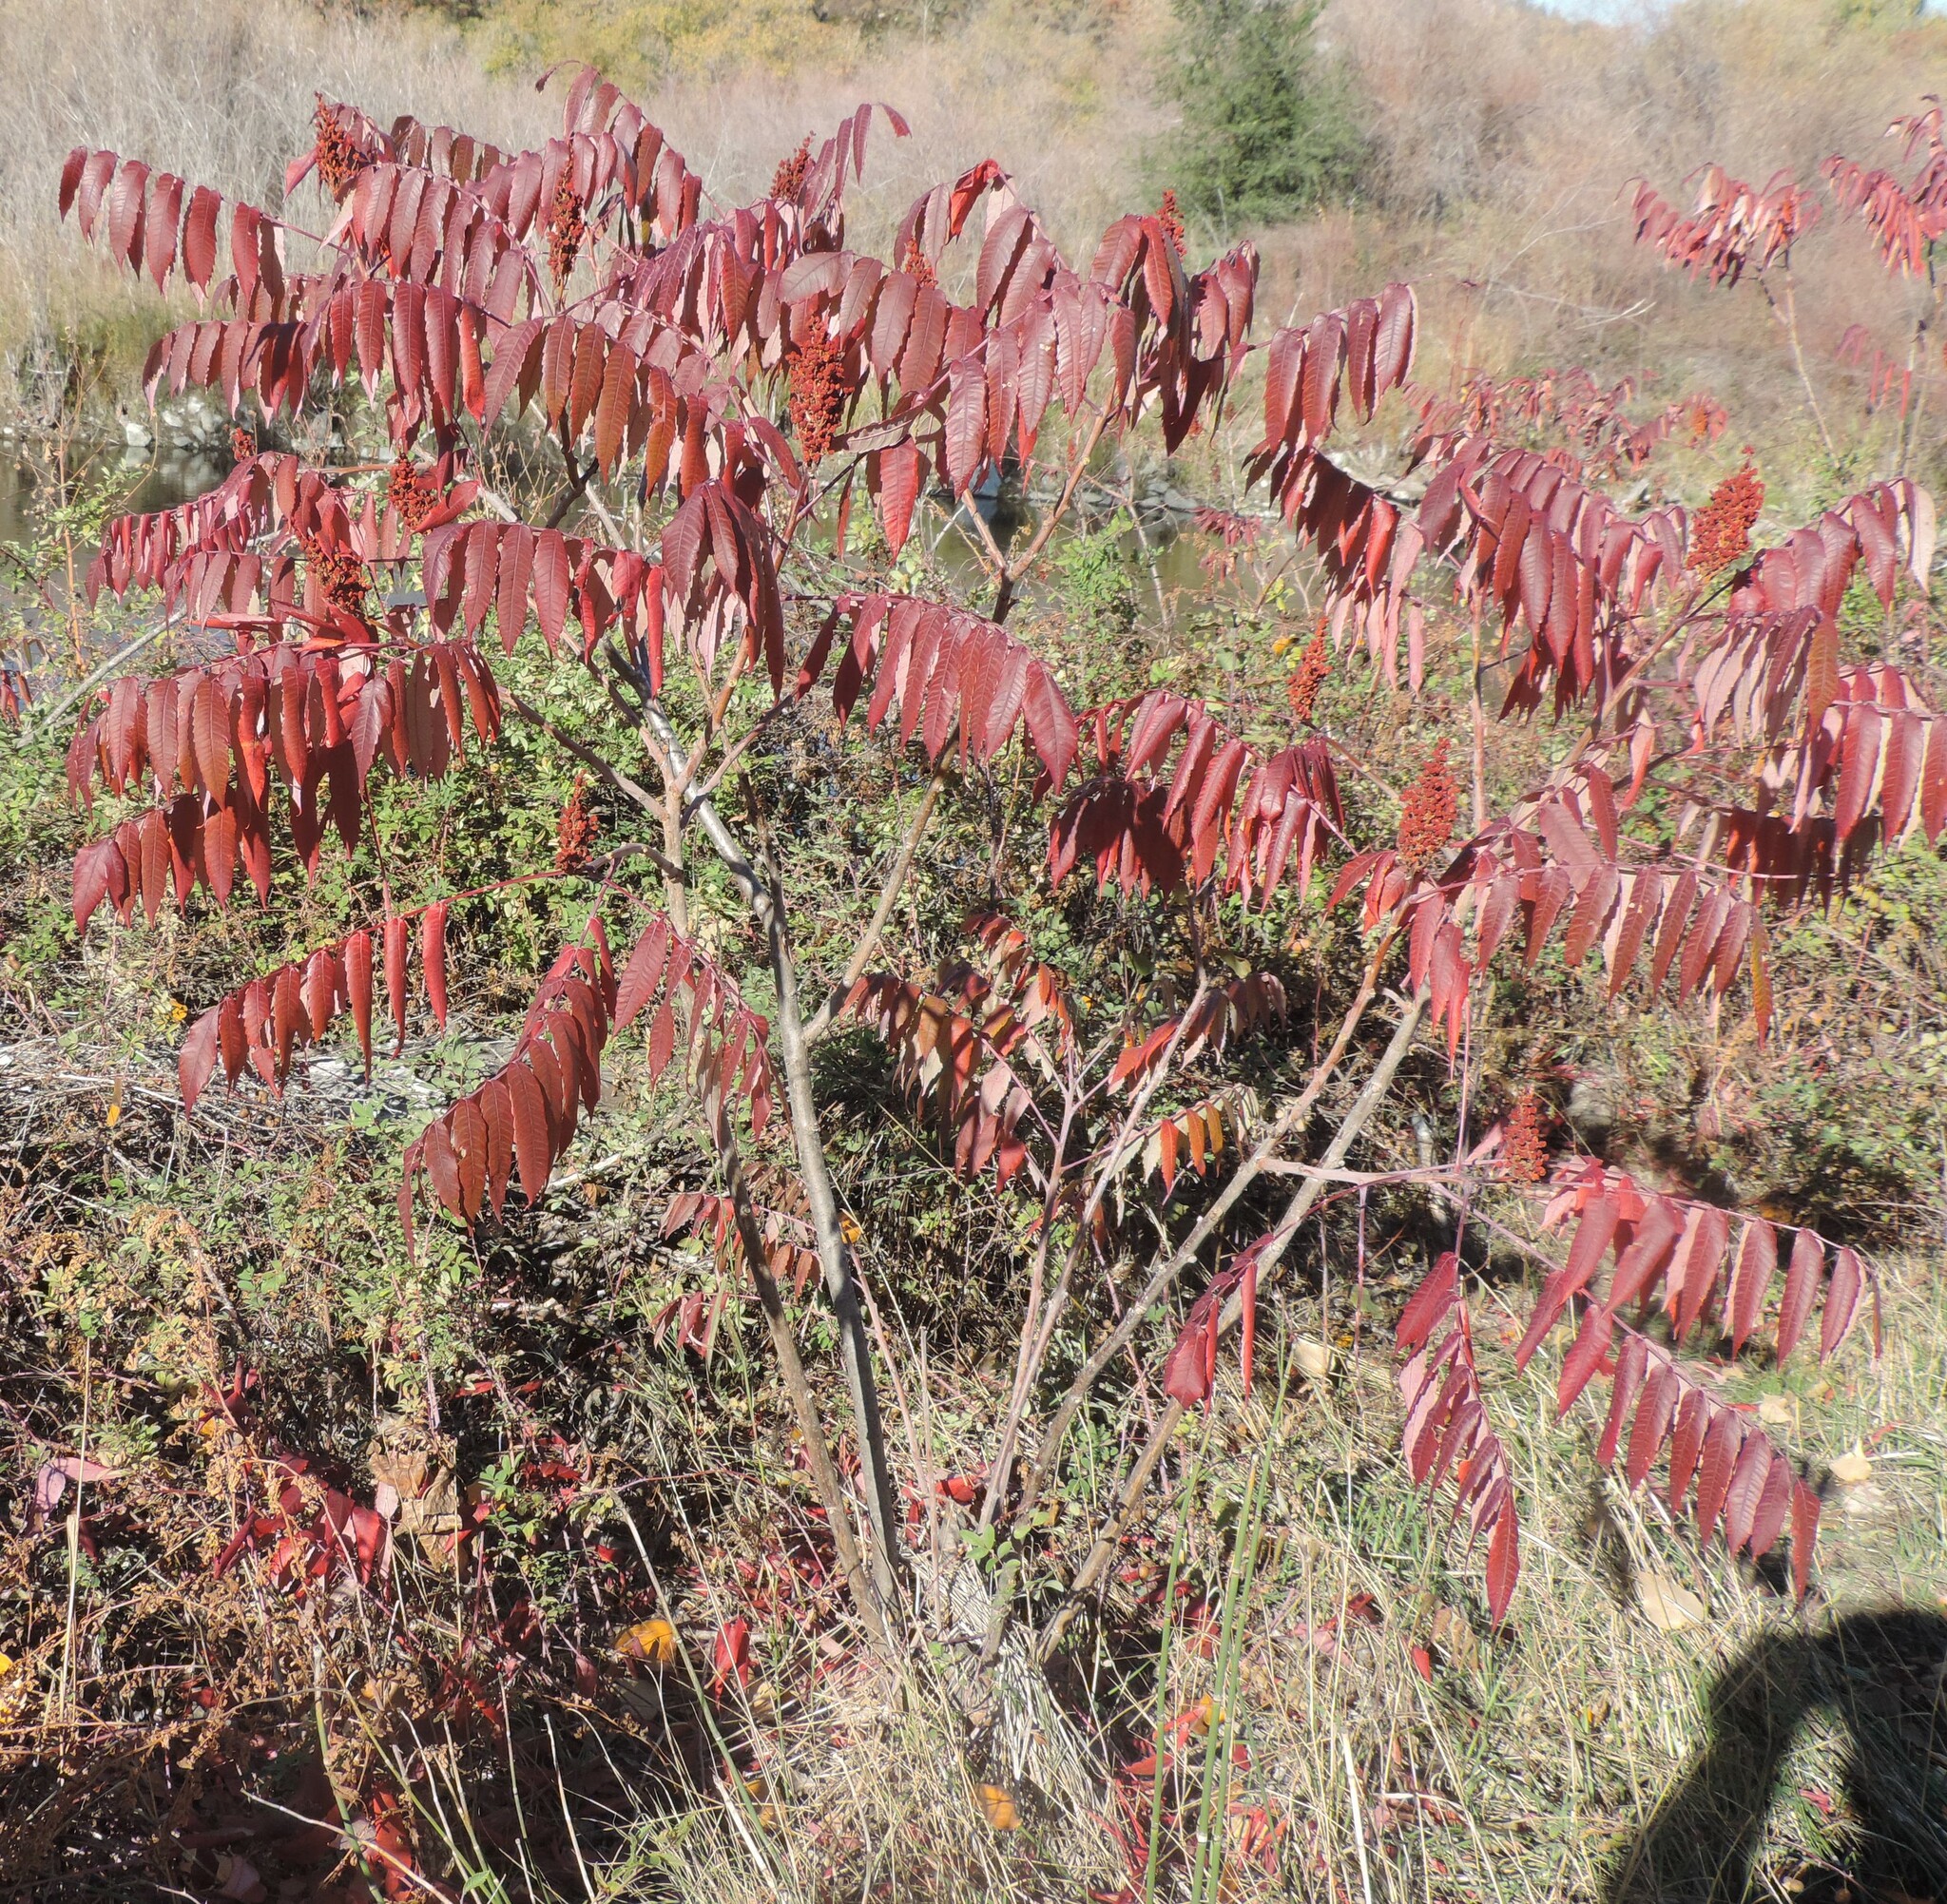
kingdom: Plantae
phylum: Tracheophyta
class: Magnoliopsida
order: Sapindales
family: Anacardiaceae
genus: Rhus
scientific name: Rhus glabra
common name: Scarlet sumac
